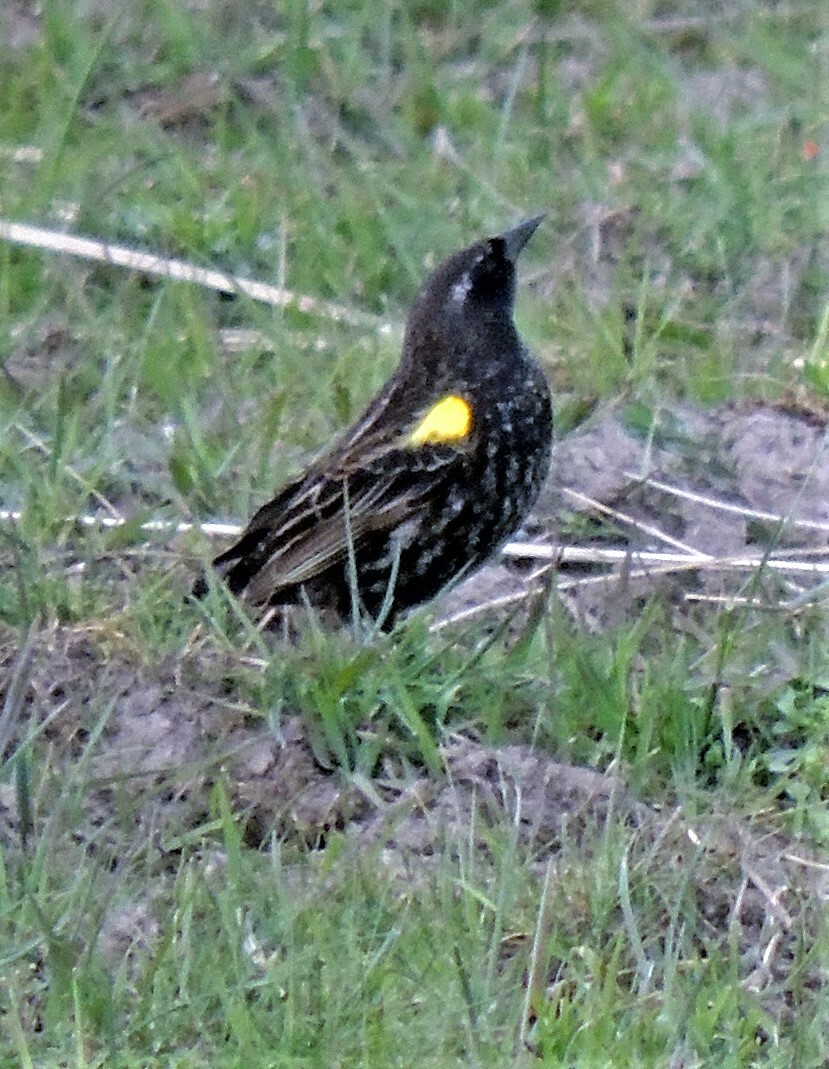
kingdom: Animalia
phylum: Chordata
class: Aves
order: Passeriformes
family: Icteridae
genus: Agelasticus
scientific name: Agelasticus thilius
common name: Yellow-winged blackbird
